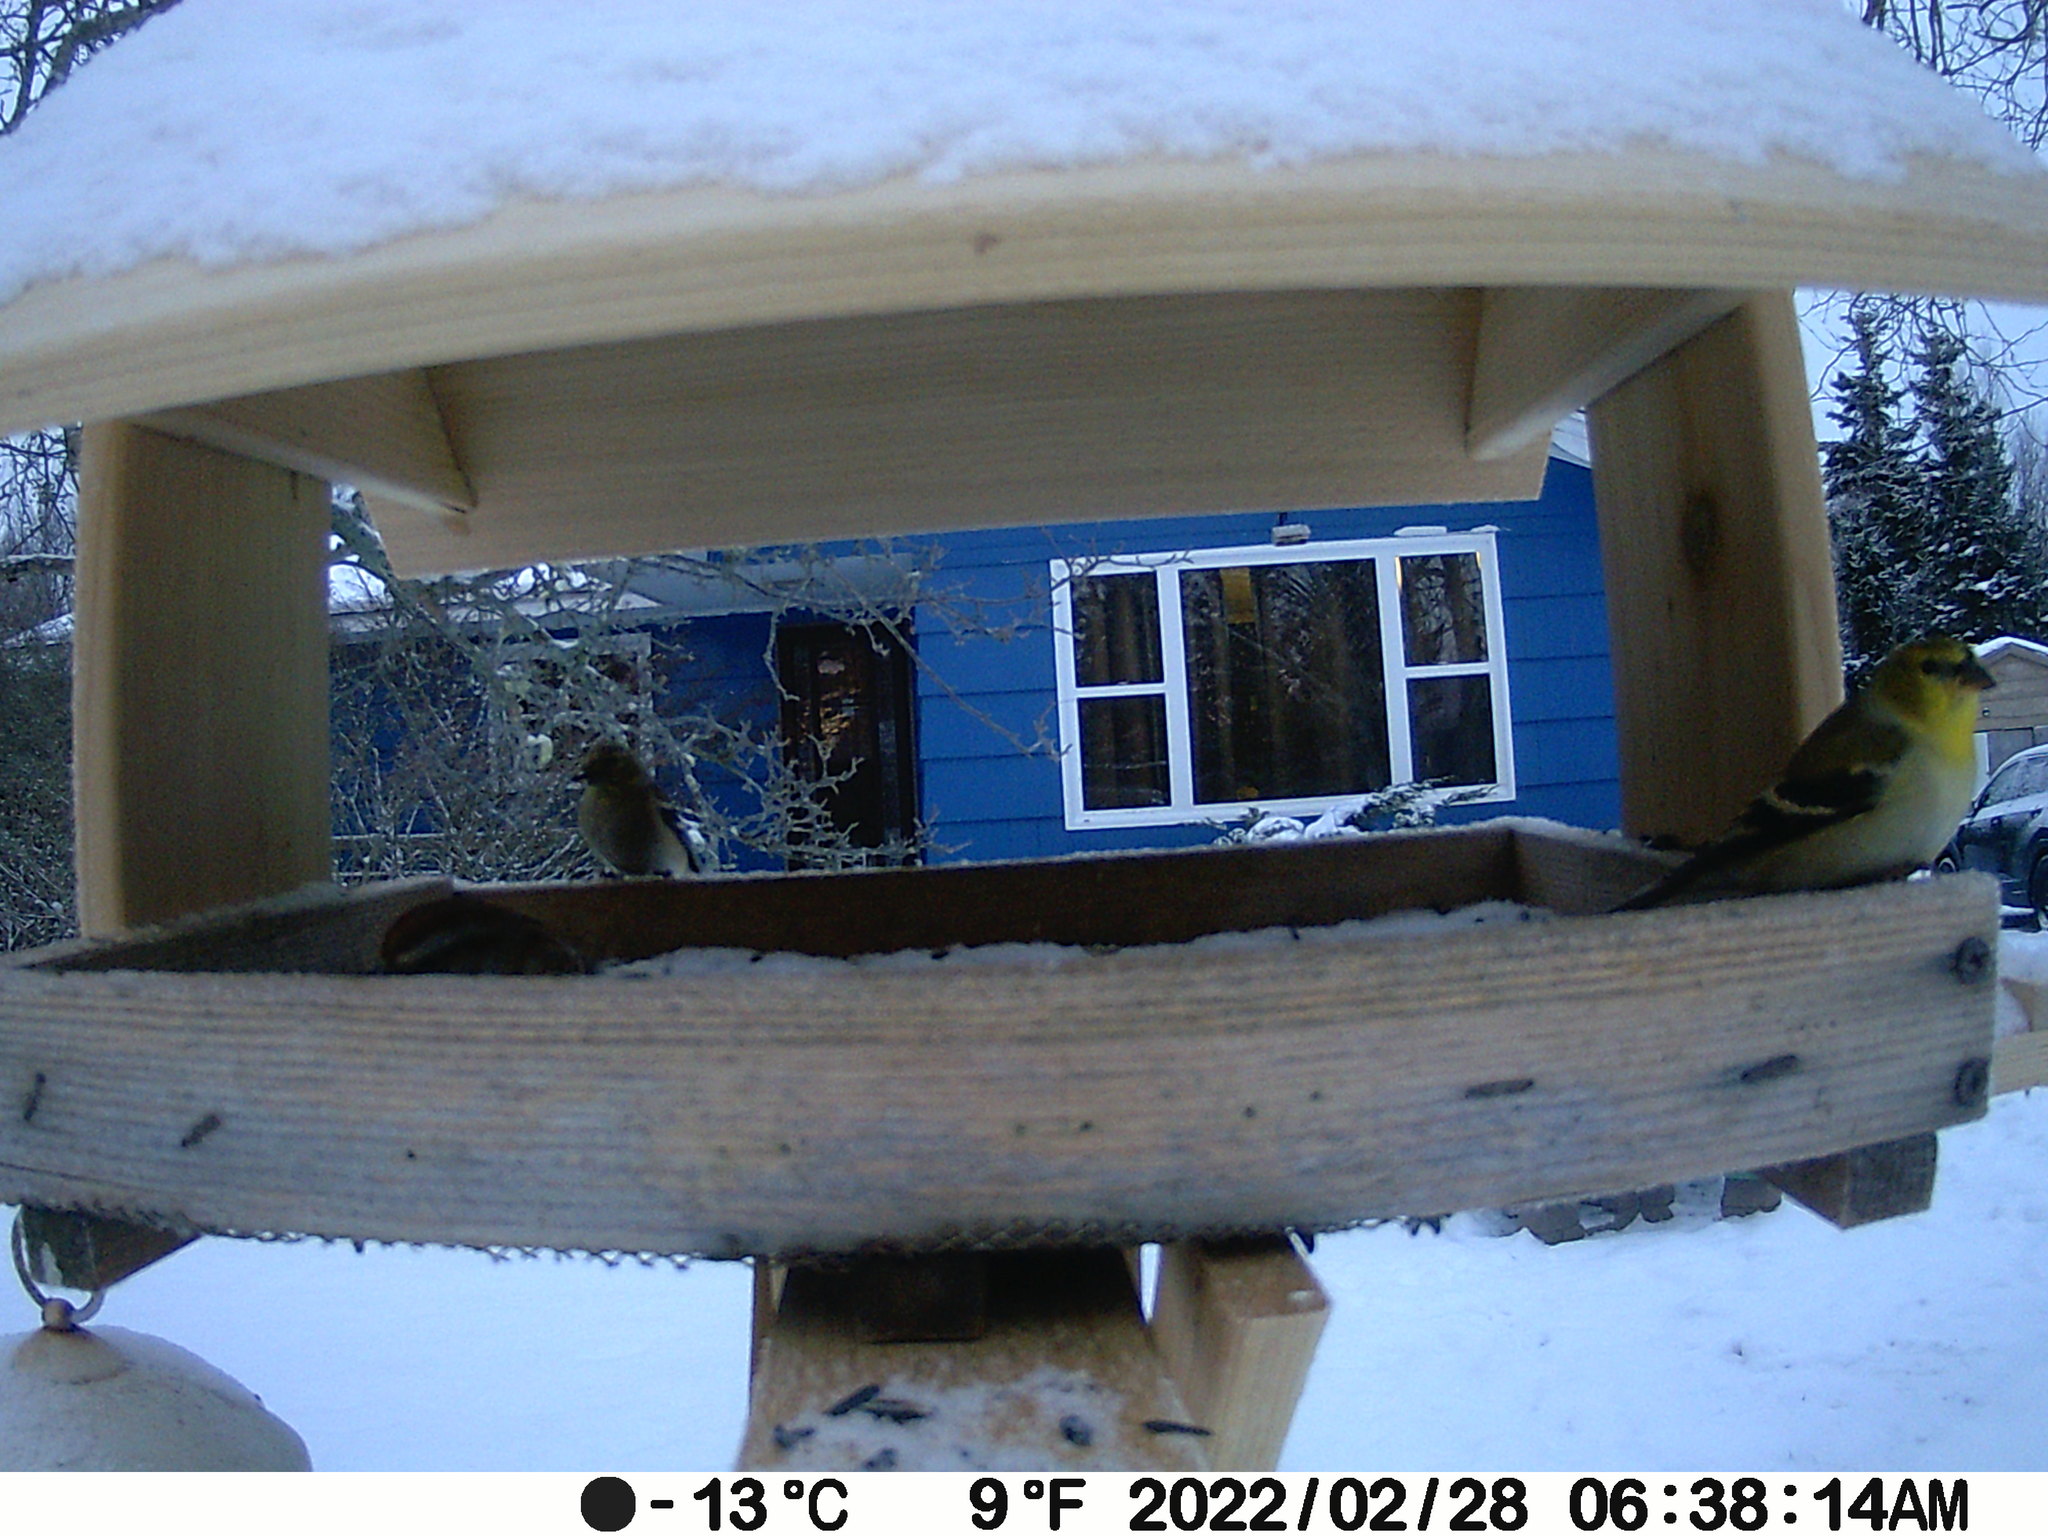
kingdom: Animalia
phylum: Chordata
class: Aves
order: Passeriformes
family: Fringillidae
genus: Spinus
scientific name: Spinus tristis
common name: American goldfinch
